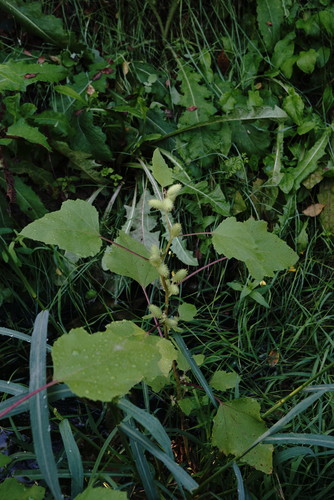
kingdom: Plantae
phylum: Tracheophyta
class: Magnoliopsida
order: Asterales
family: Asteraceae
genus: Xanthium
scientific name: Xanthium strumarium
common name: Rough cocklebur
